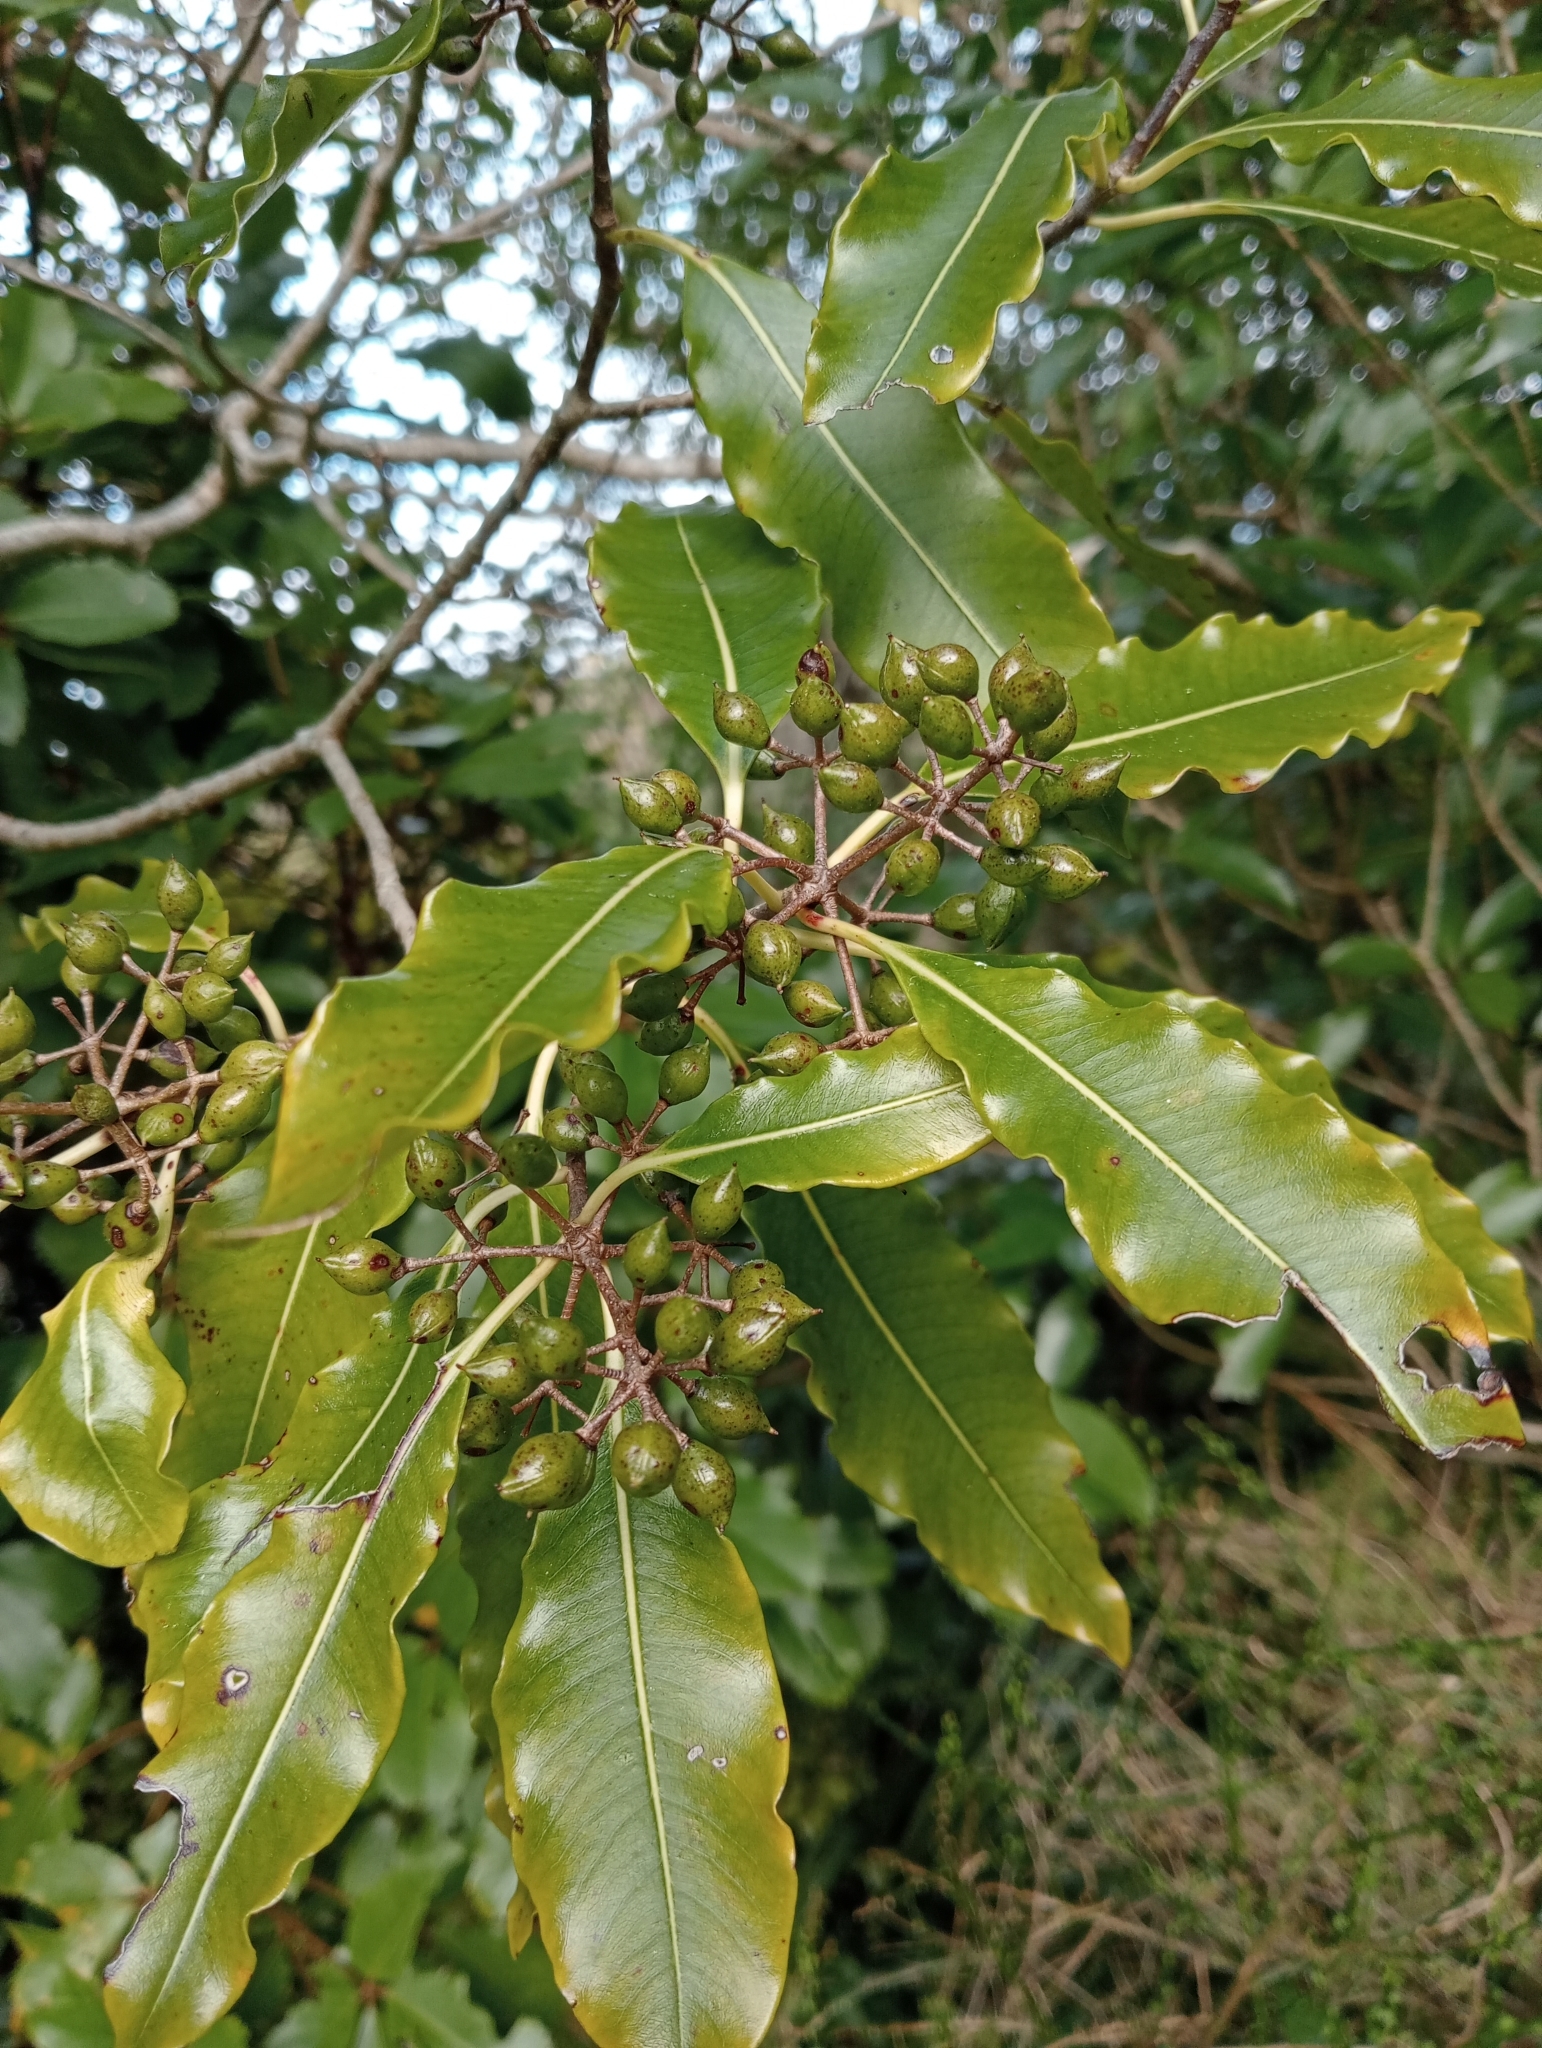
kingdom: Plantae
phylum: Tracheophyta
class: Magnoliopsida
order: Apiales
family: Pittosporaceae
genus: Pittosporum
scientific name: Pittosporum eugenioides
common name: Lemonwood
